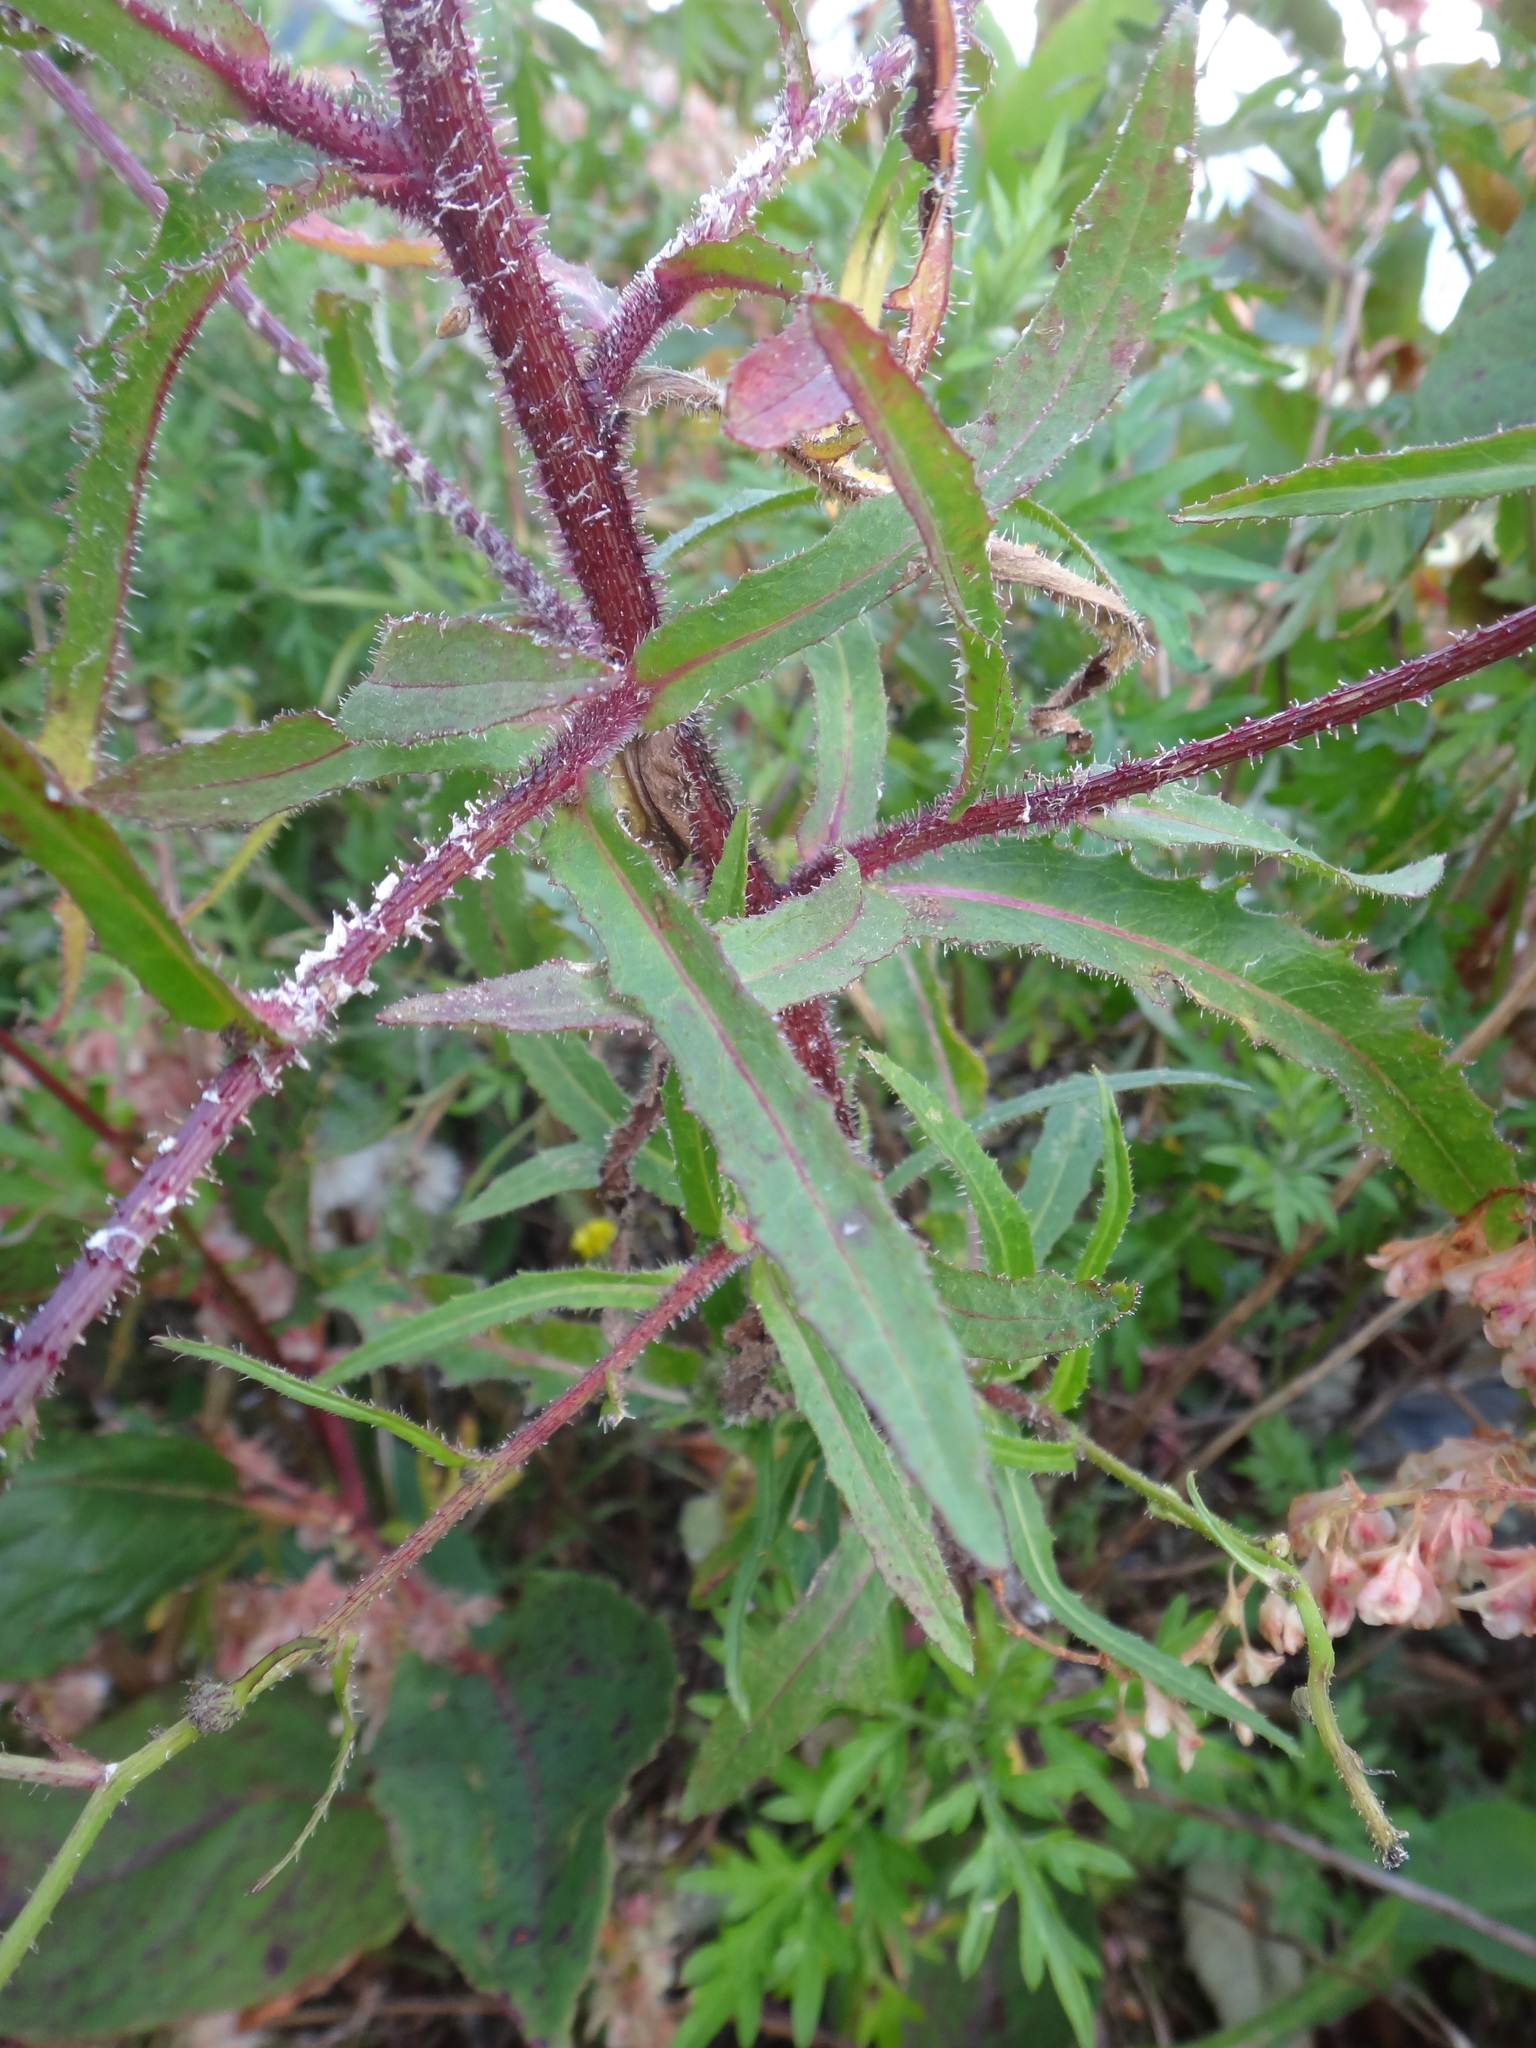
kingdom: Plantae
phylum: Tracheophyta
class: Magnoliopsida
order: Asterales
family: Asteraceae
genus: Picris
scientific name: Picris angustifolia
